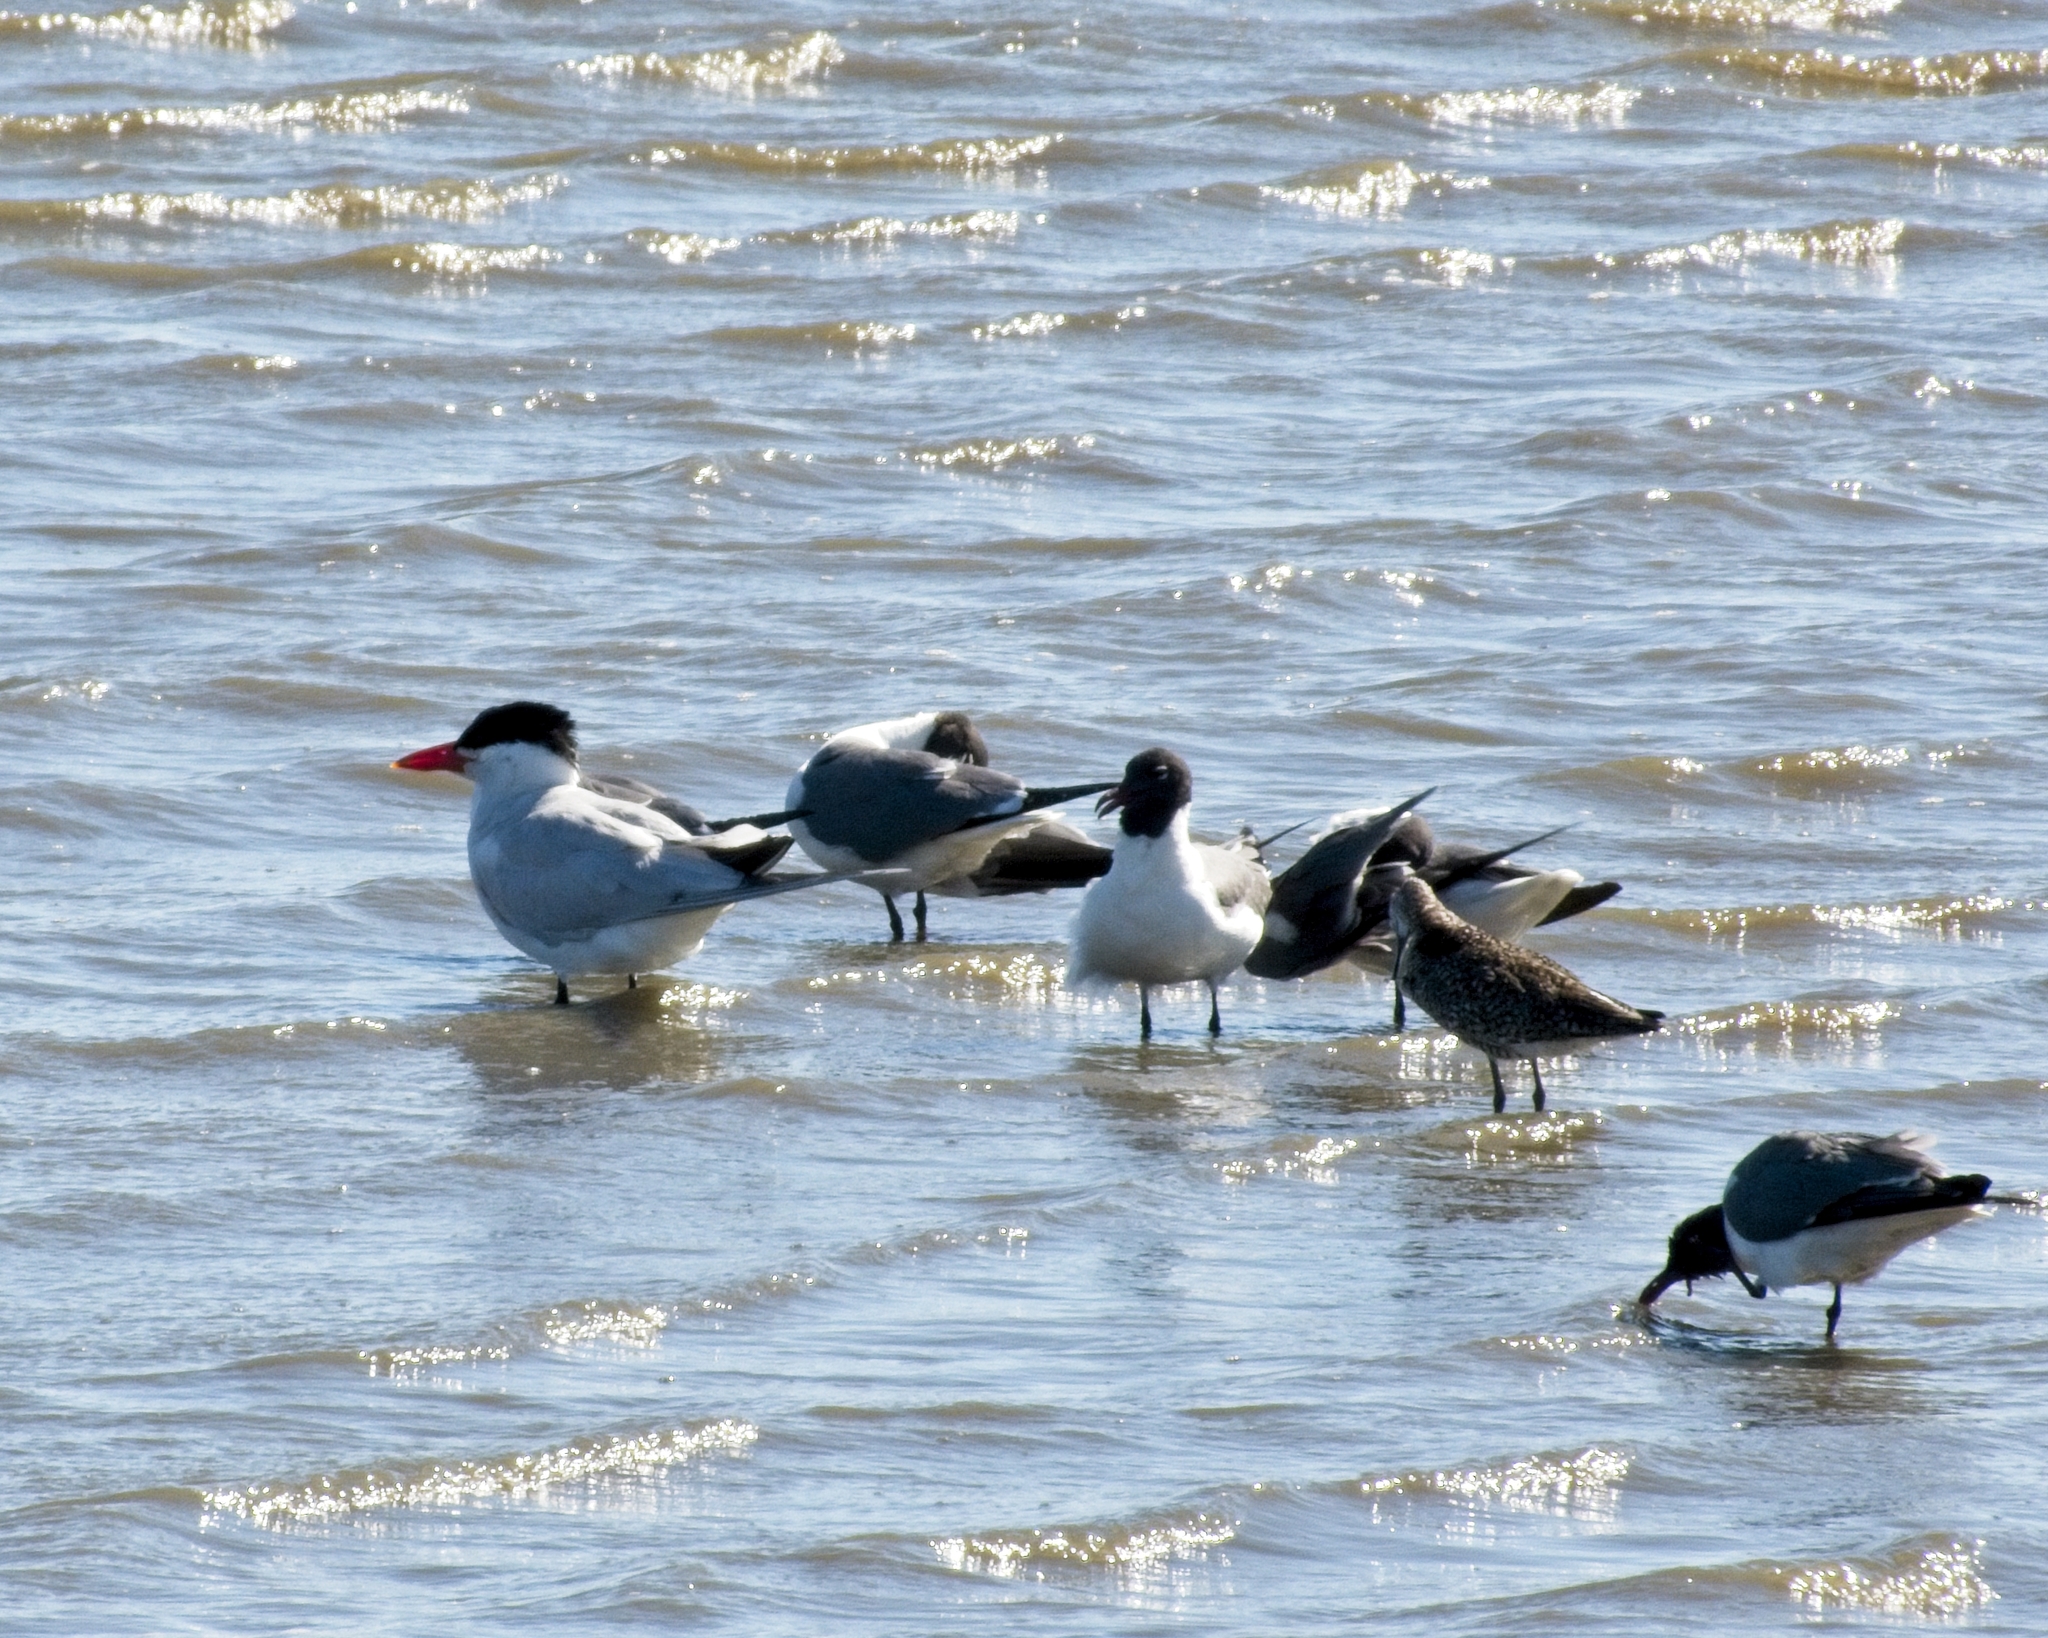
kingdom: Animalia
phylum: Chordata
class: Aves
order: Charadriiformes
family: Laridae
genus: Hydroprogne
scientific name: Hydroprogne caspia
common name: Caspian tern
